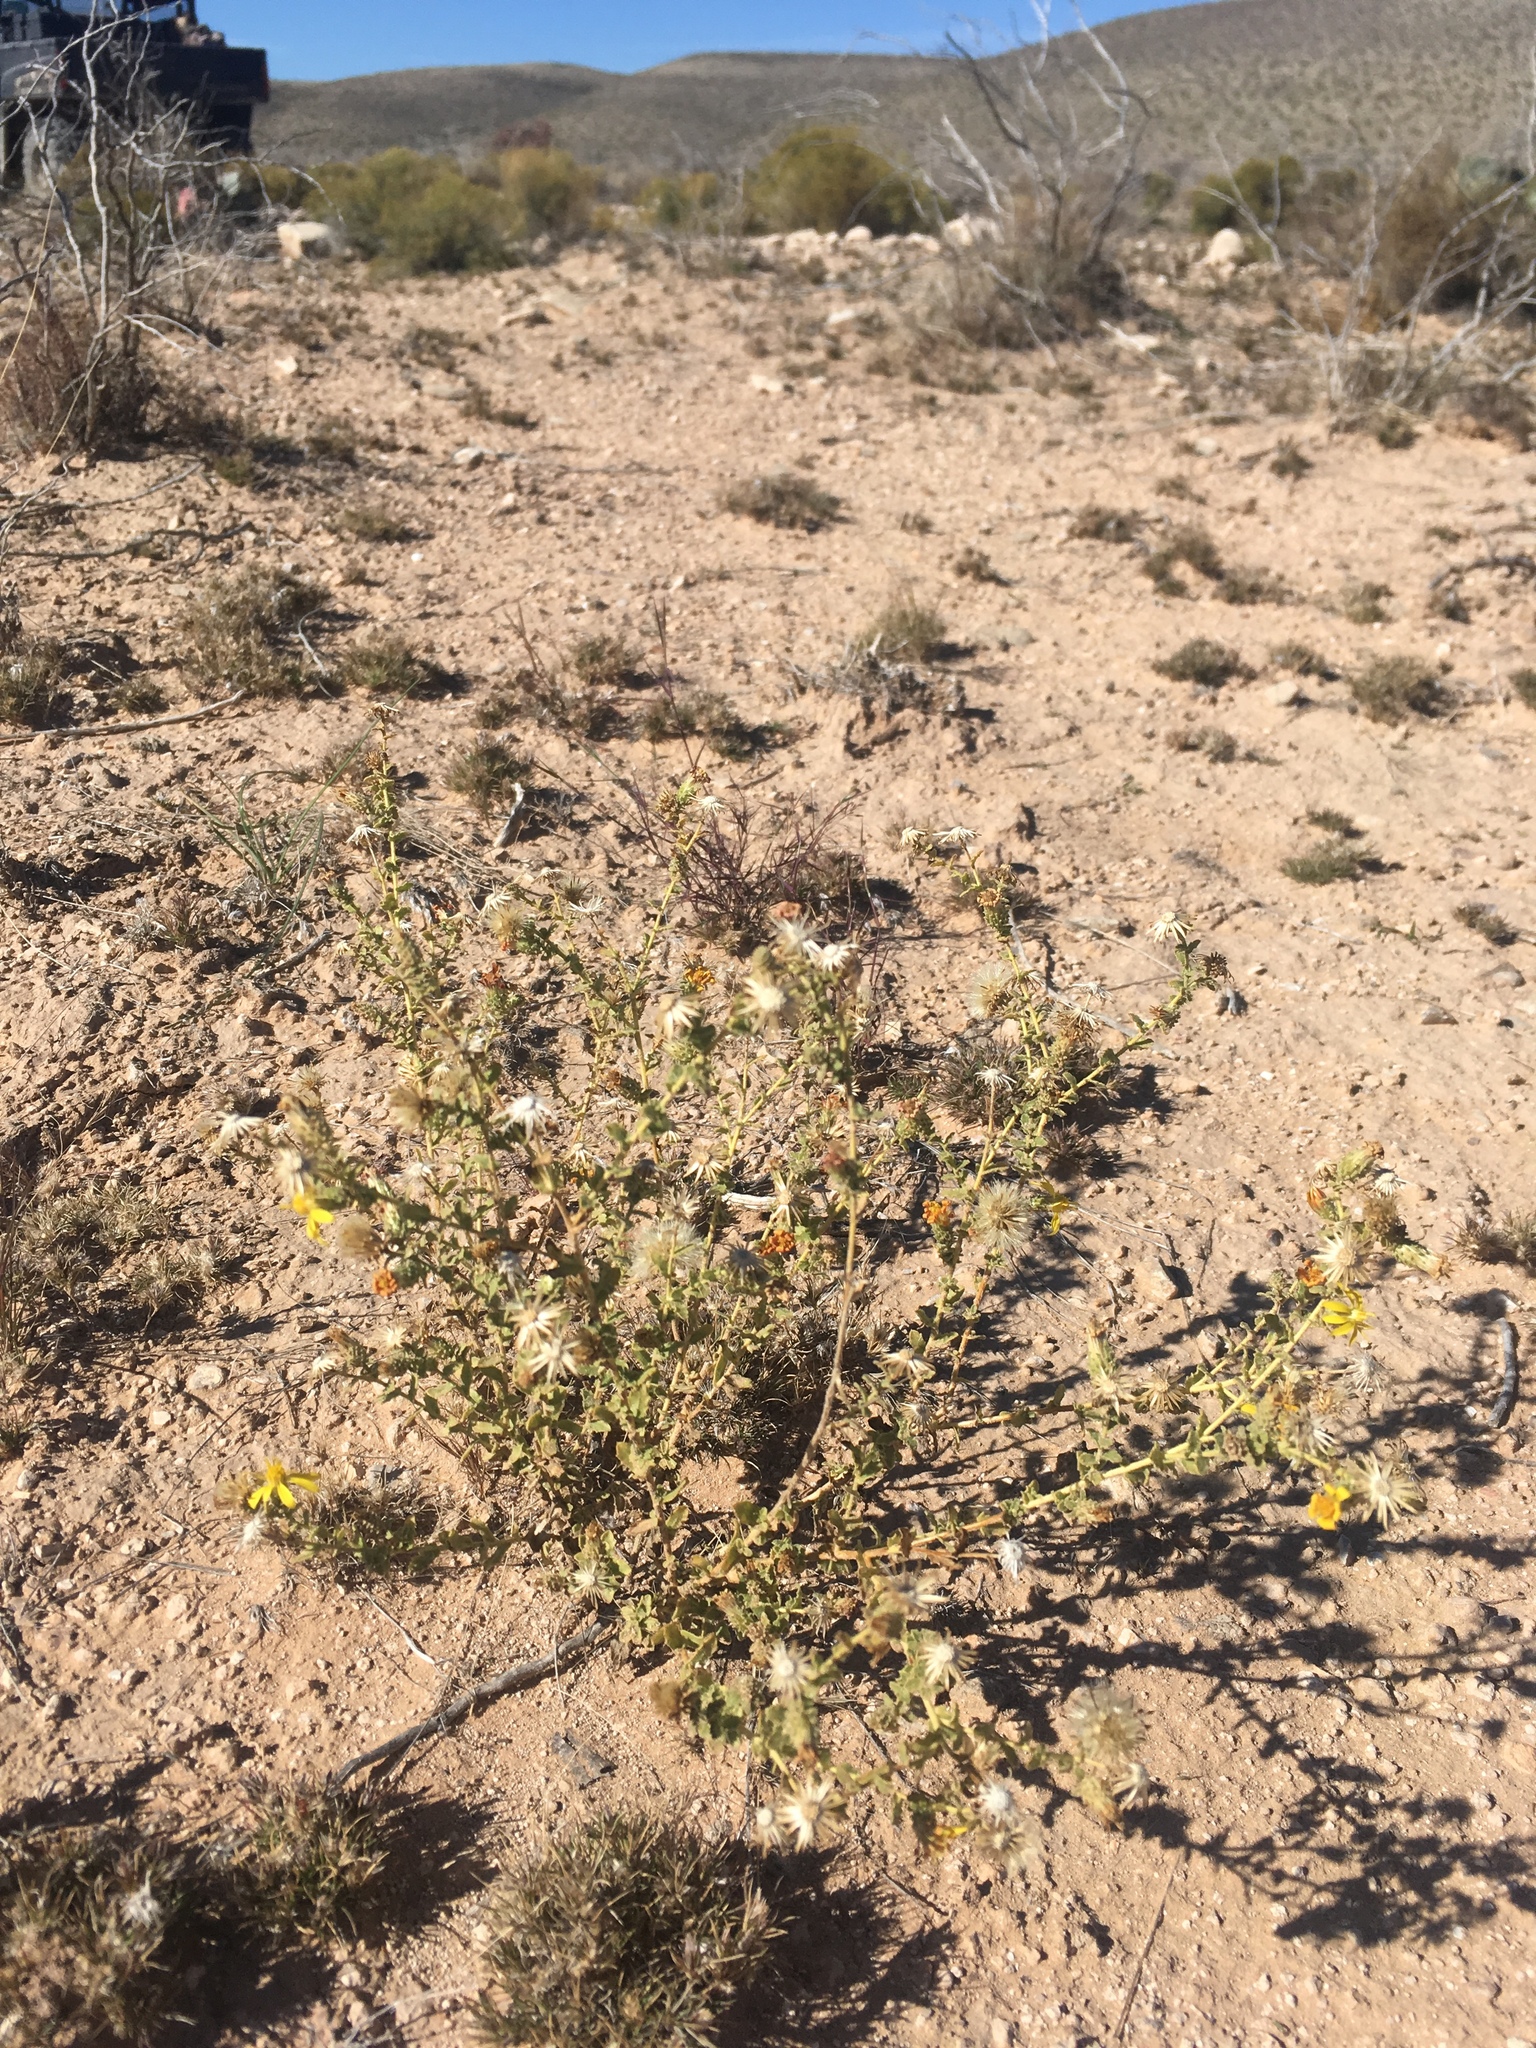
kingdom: Plantae
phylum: Tracheophyta
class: Magnoliopsida
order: Asterales
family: Asteraceae
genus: Xanthisma
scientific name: Xanthisma viscidum
